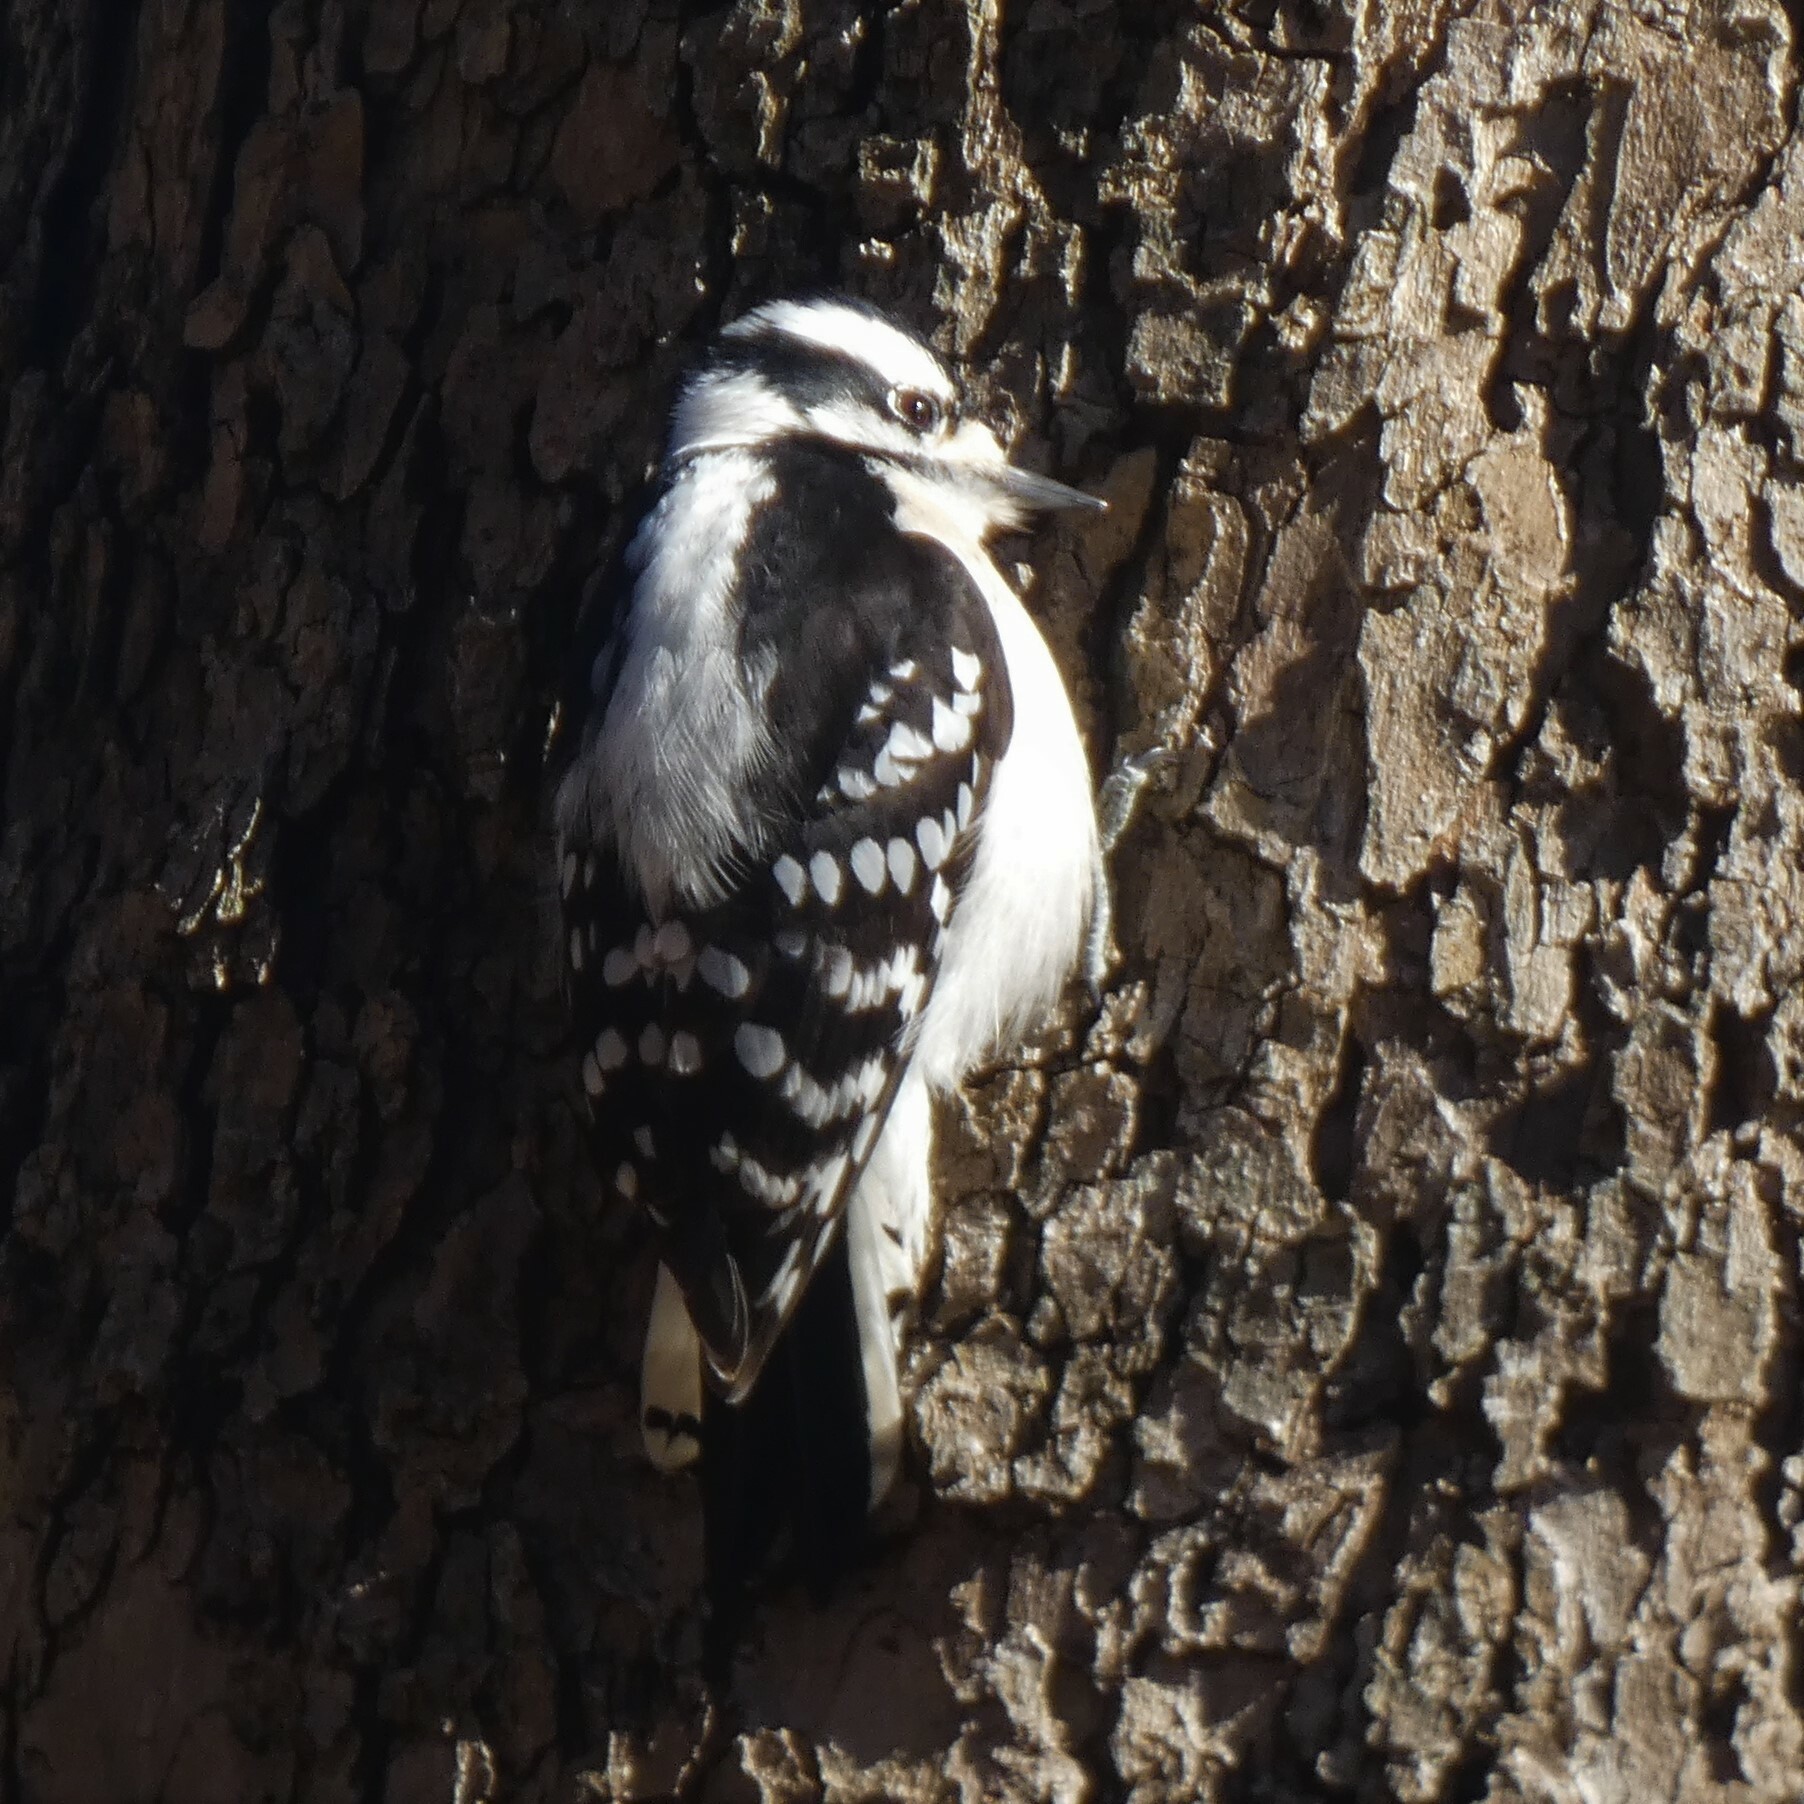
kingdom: Animalia
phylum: Chordata
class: Aves
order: Piciformes
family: Picidae
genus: Dryobates
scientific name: Dryobates pubescens
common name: Downy woodpecker
